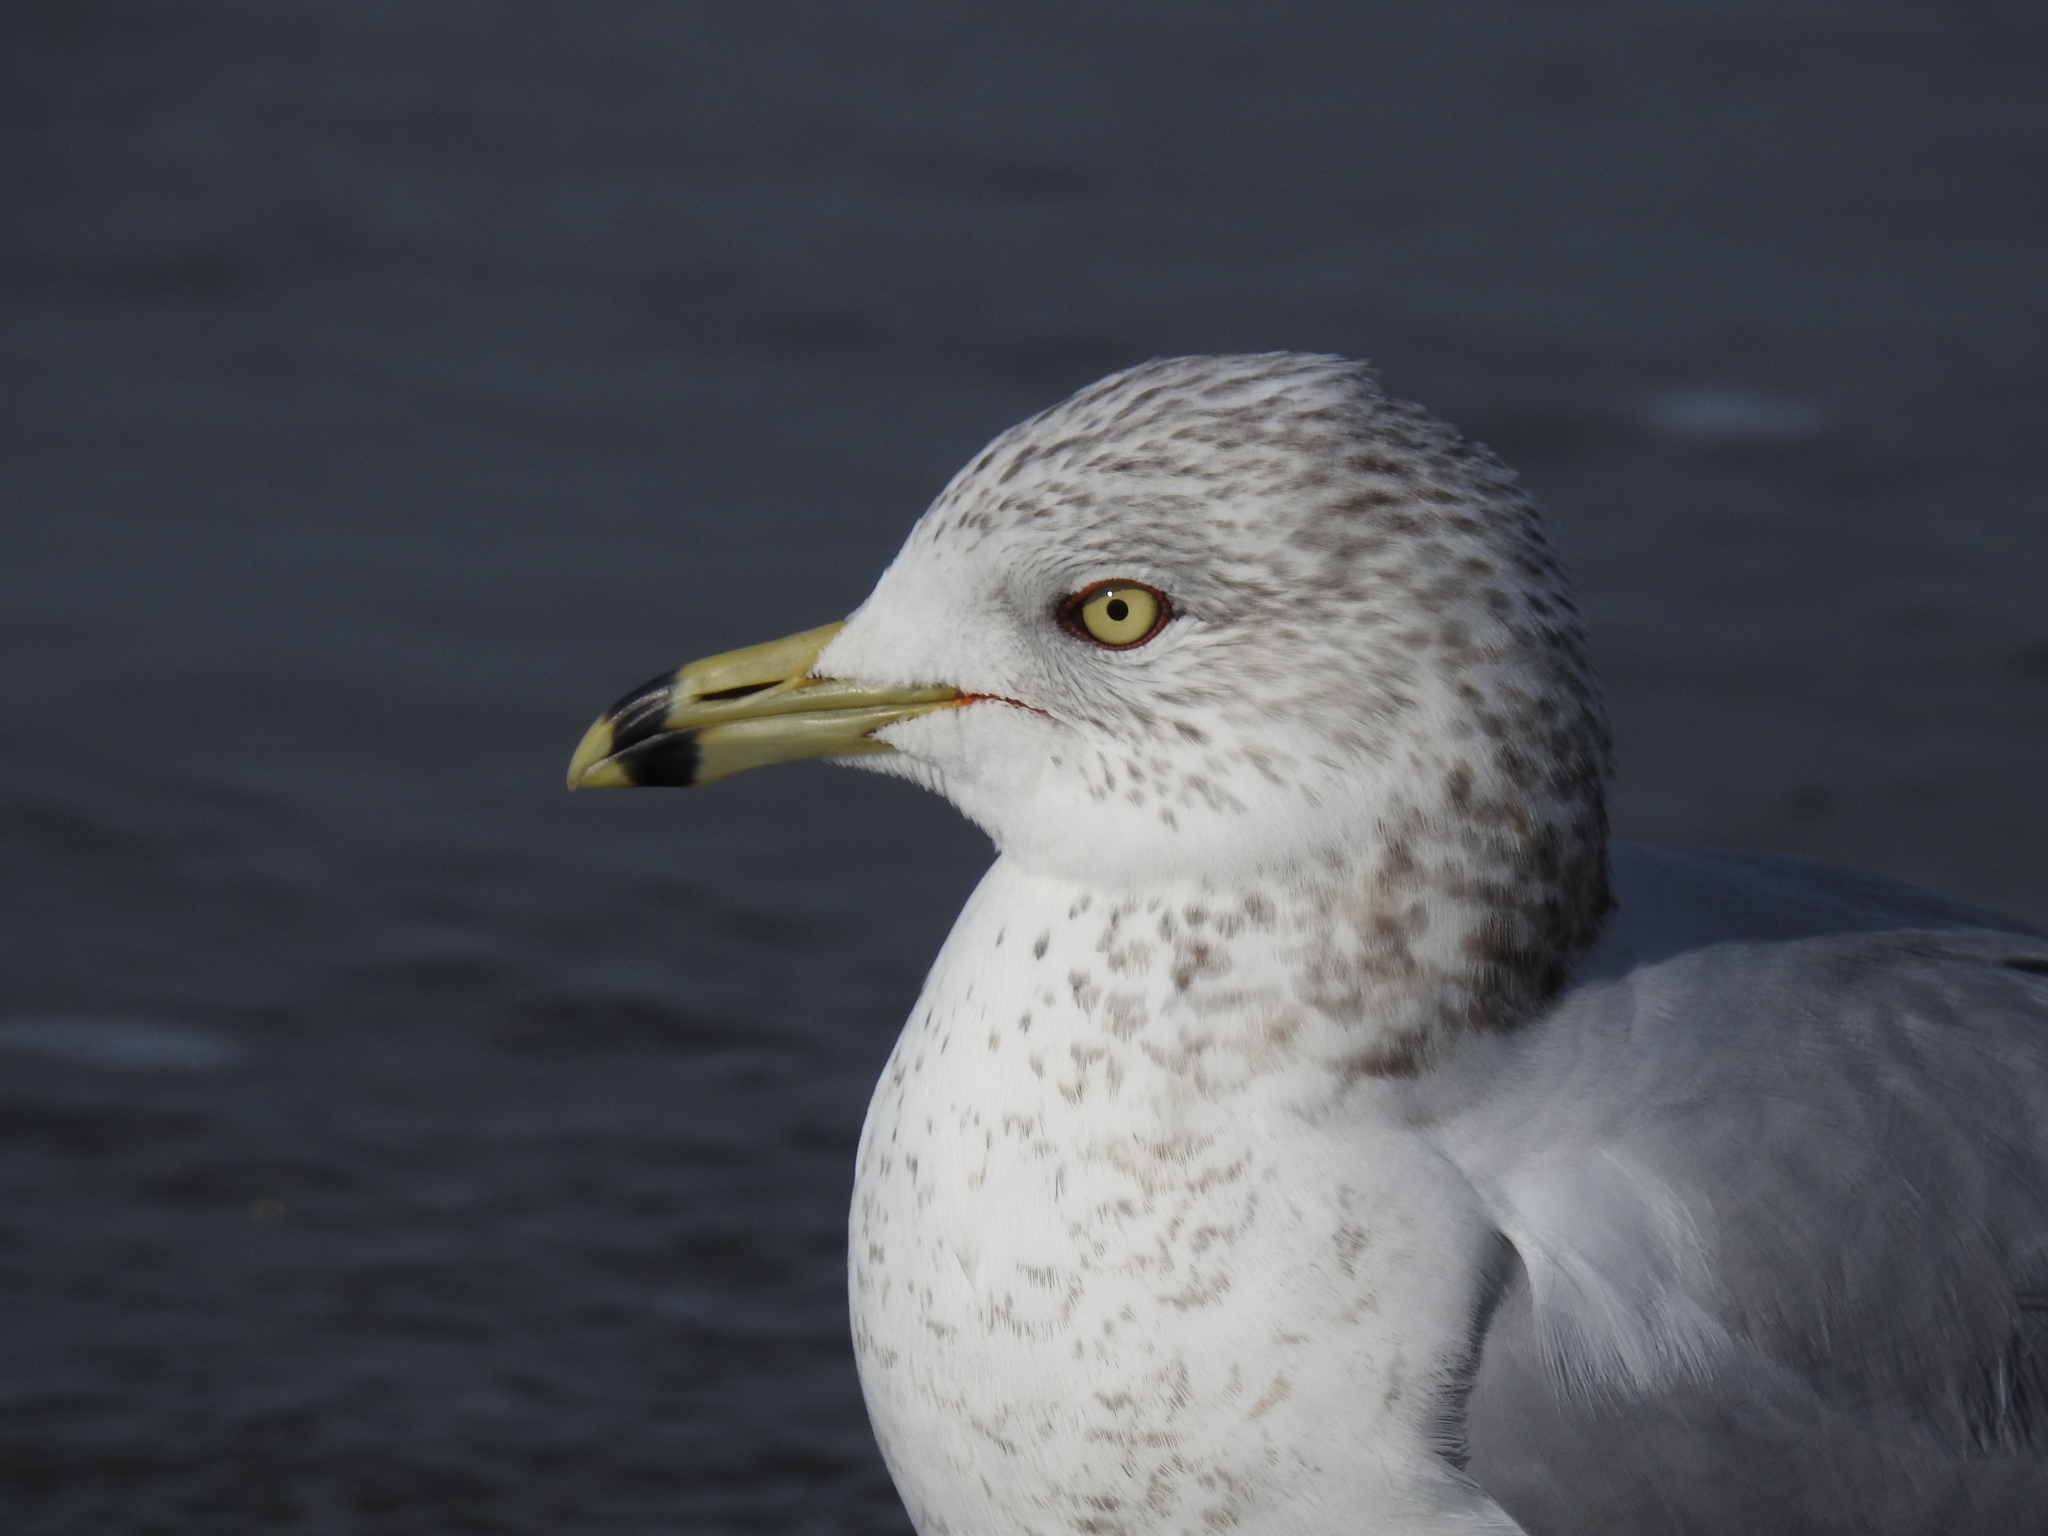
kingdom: Animalia
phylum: Chordata
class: Aves
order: Charadriiformes
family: Laridae
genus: Larus
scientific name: Larus delawarensis
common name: Ring-billed gull
